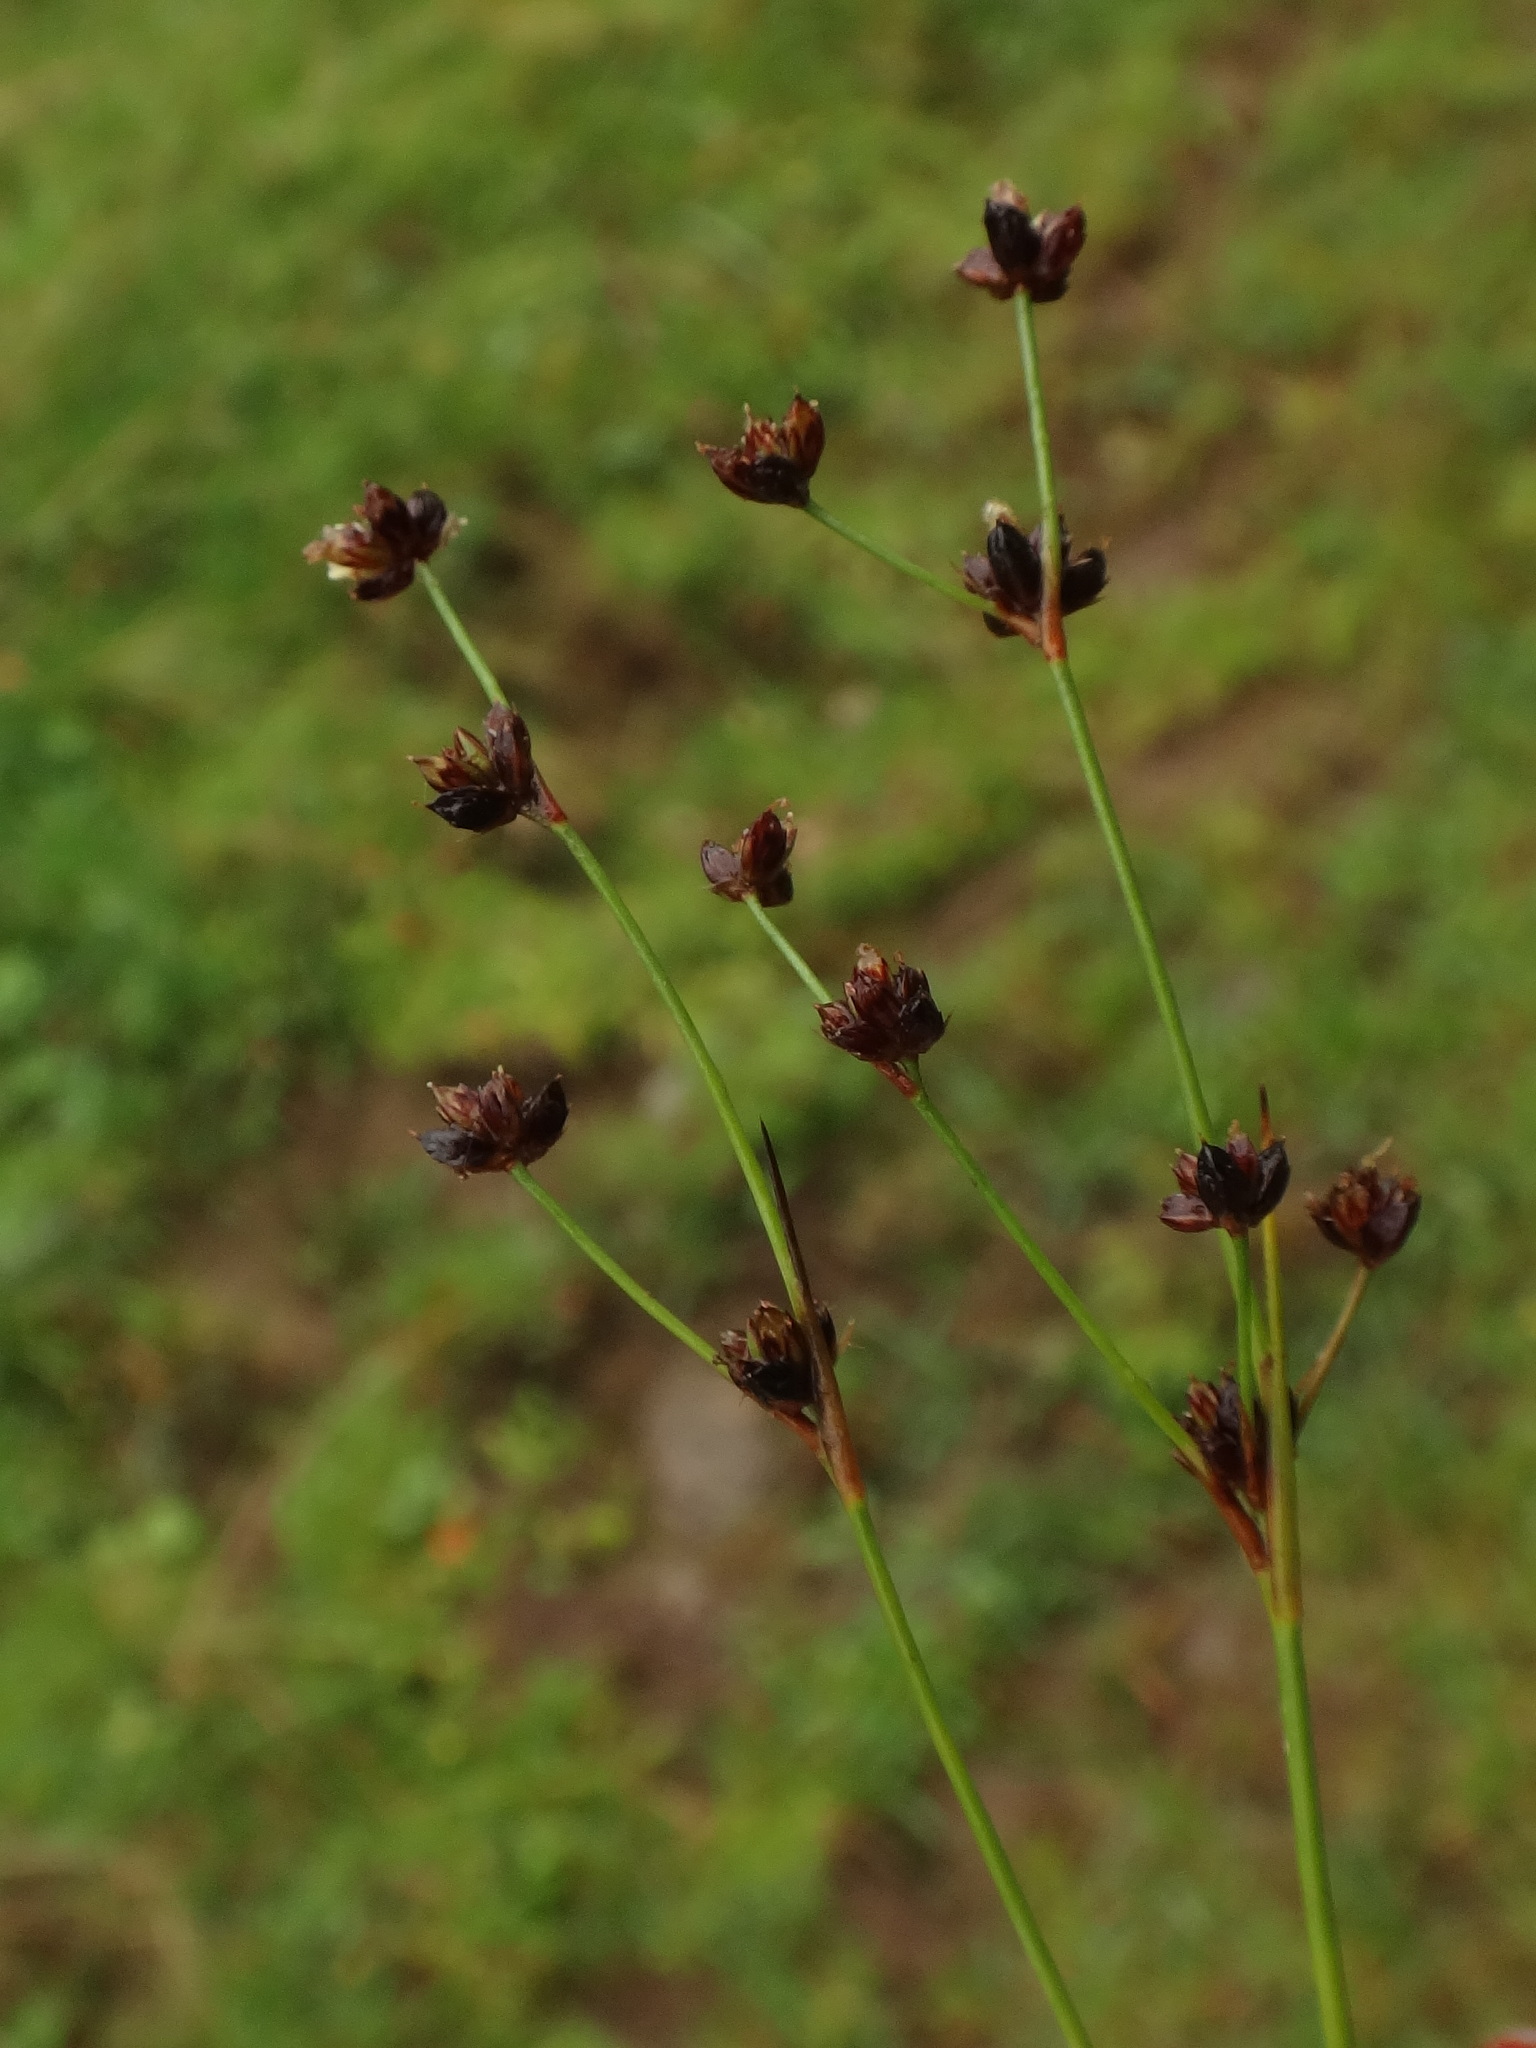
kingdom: Plantae
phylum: Tracheophyta
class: Liliopsida
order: Poales
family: Juncaceae
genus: Juncus
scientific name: Juncus alpinoarticulatus
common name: Alpine rush
